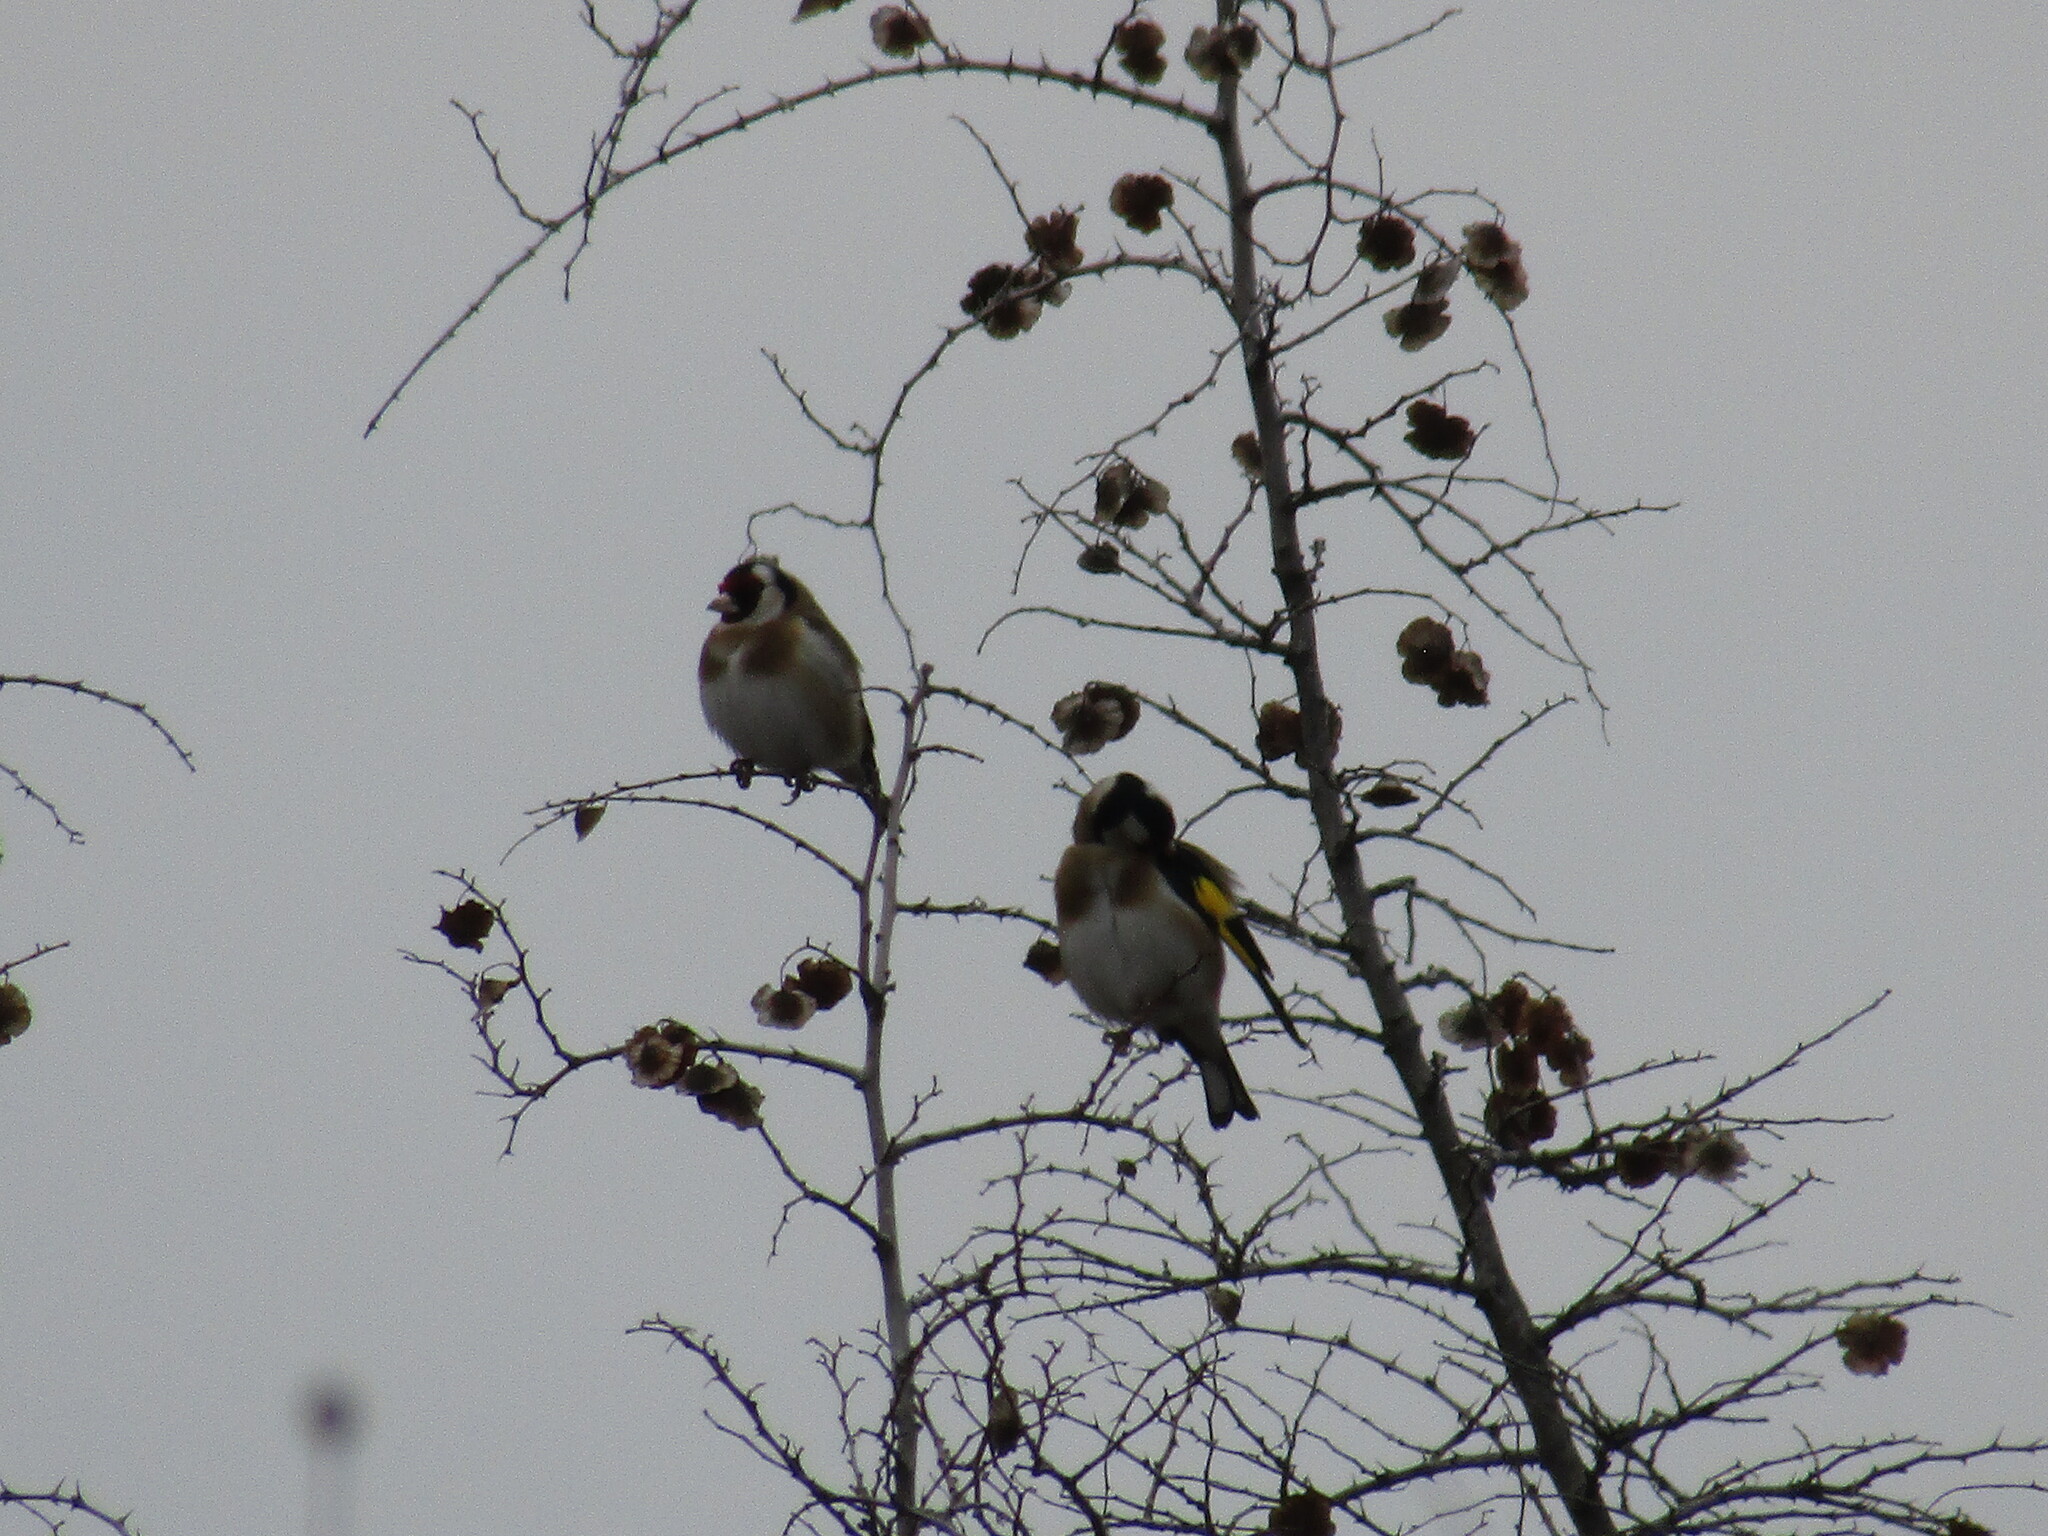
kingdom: Animalia
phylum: Chordata
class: Aves
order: Passeriformes
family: Fringillidae
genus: Carduelis
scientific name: Carduelis carduelis
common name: European goldfinch
